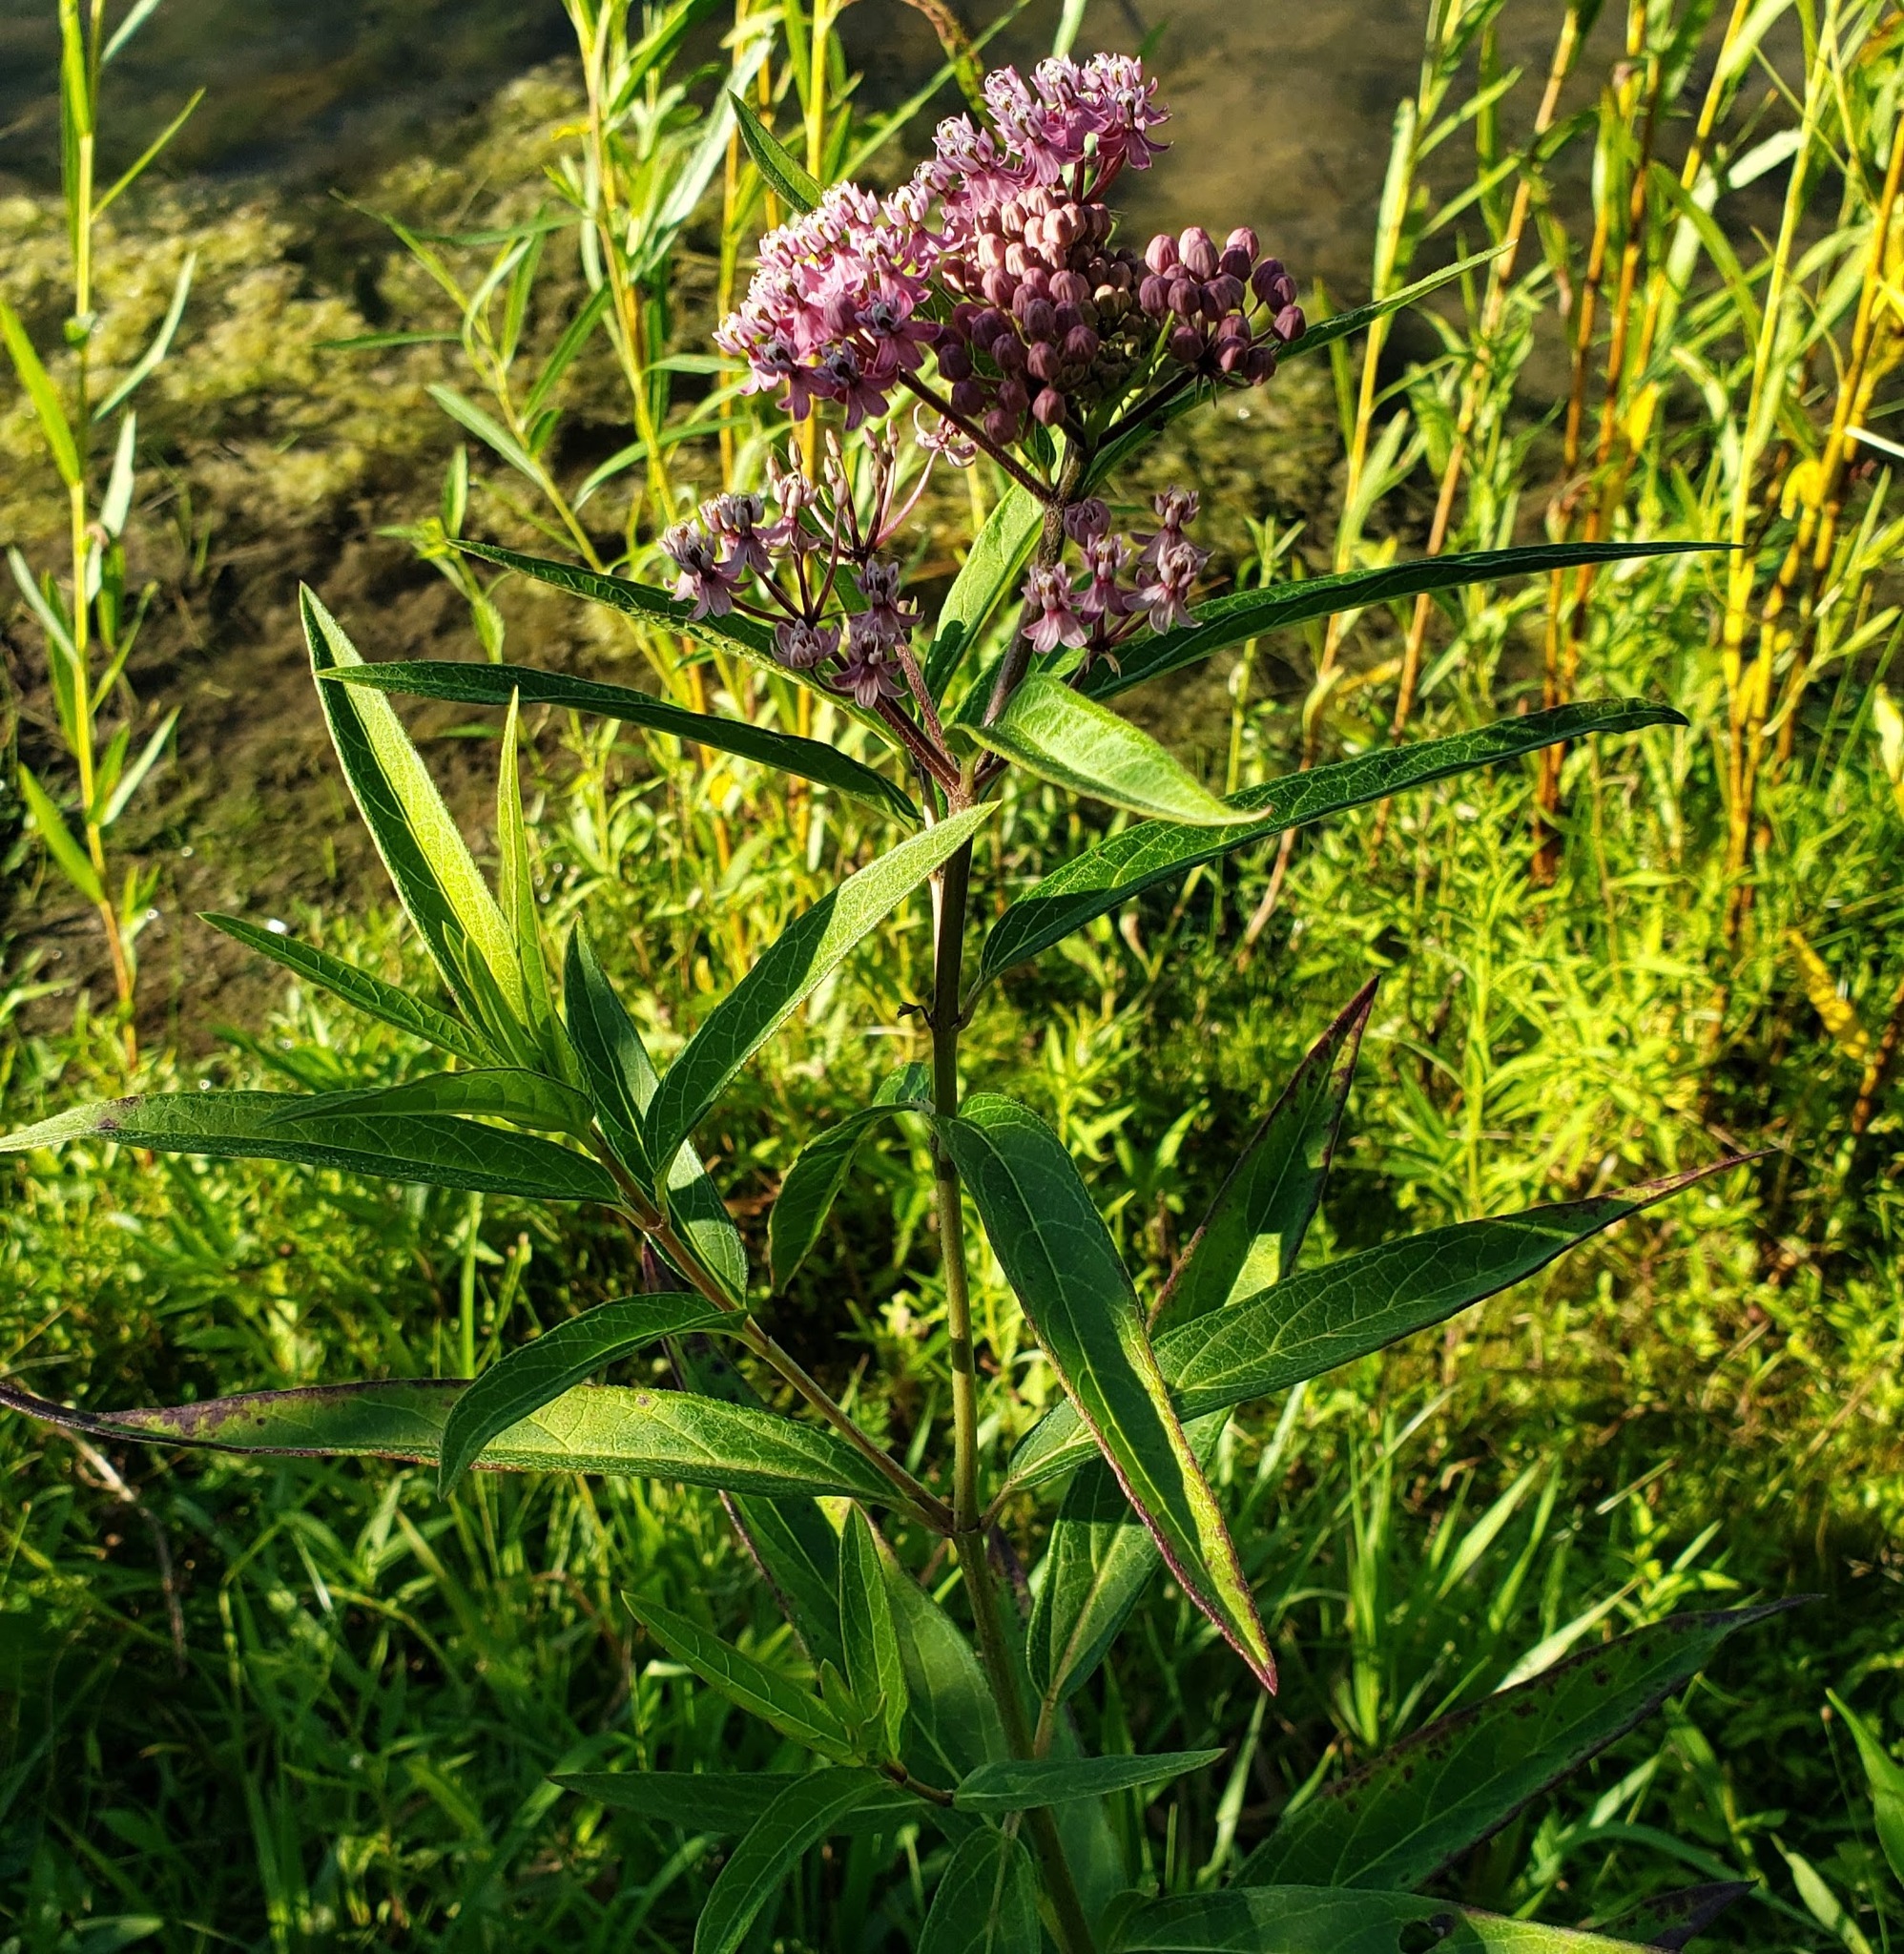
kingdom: Plantae
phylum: Tracheophyta
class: Magnoliopsida
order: Gentianales
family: Apocynaceae
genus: Asclepias
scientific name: Asclepias incarnata
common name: Swamp milkweed
